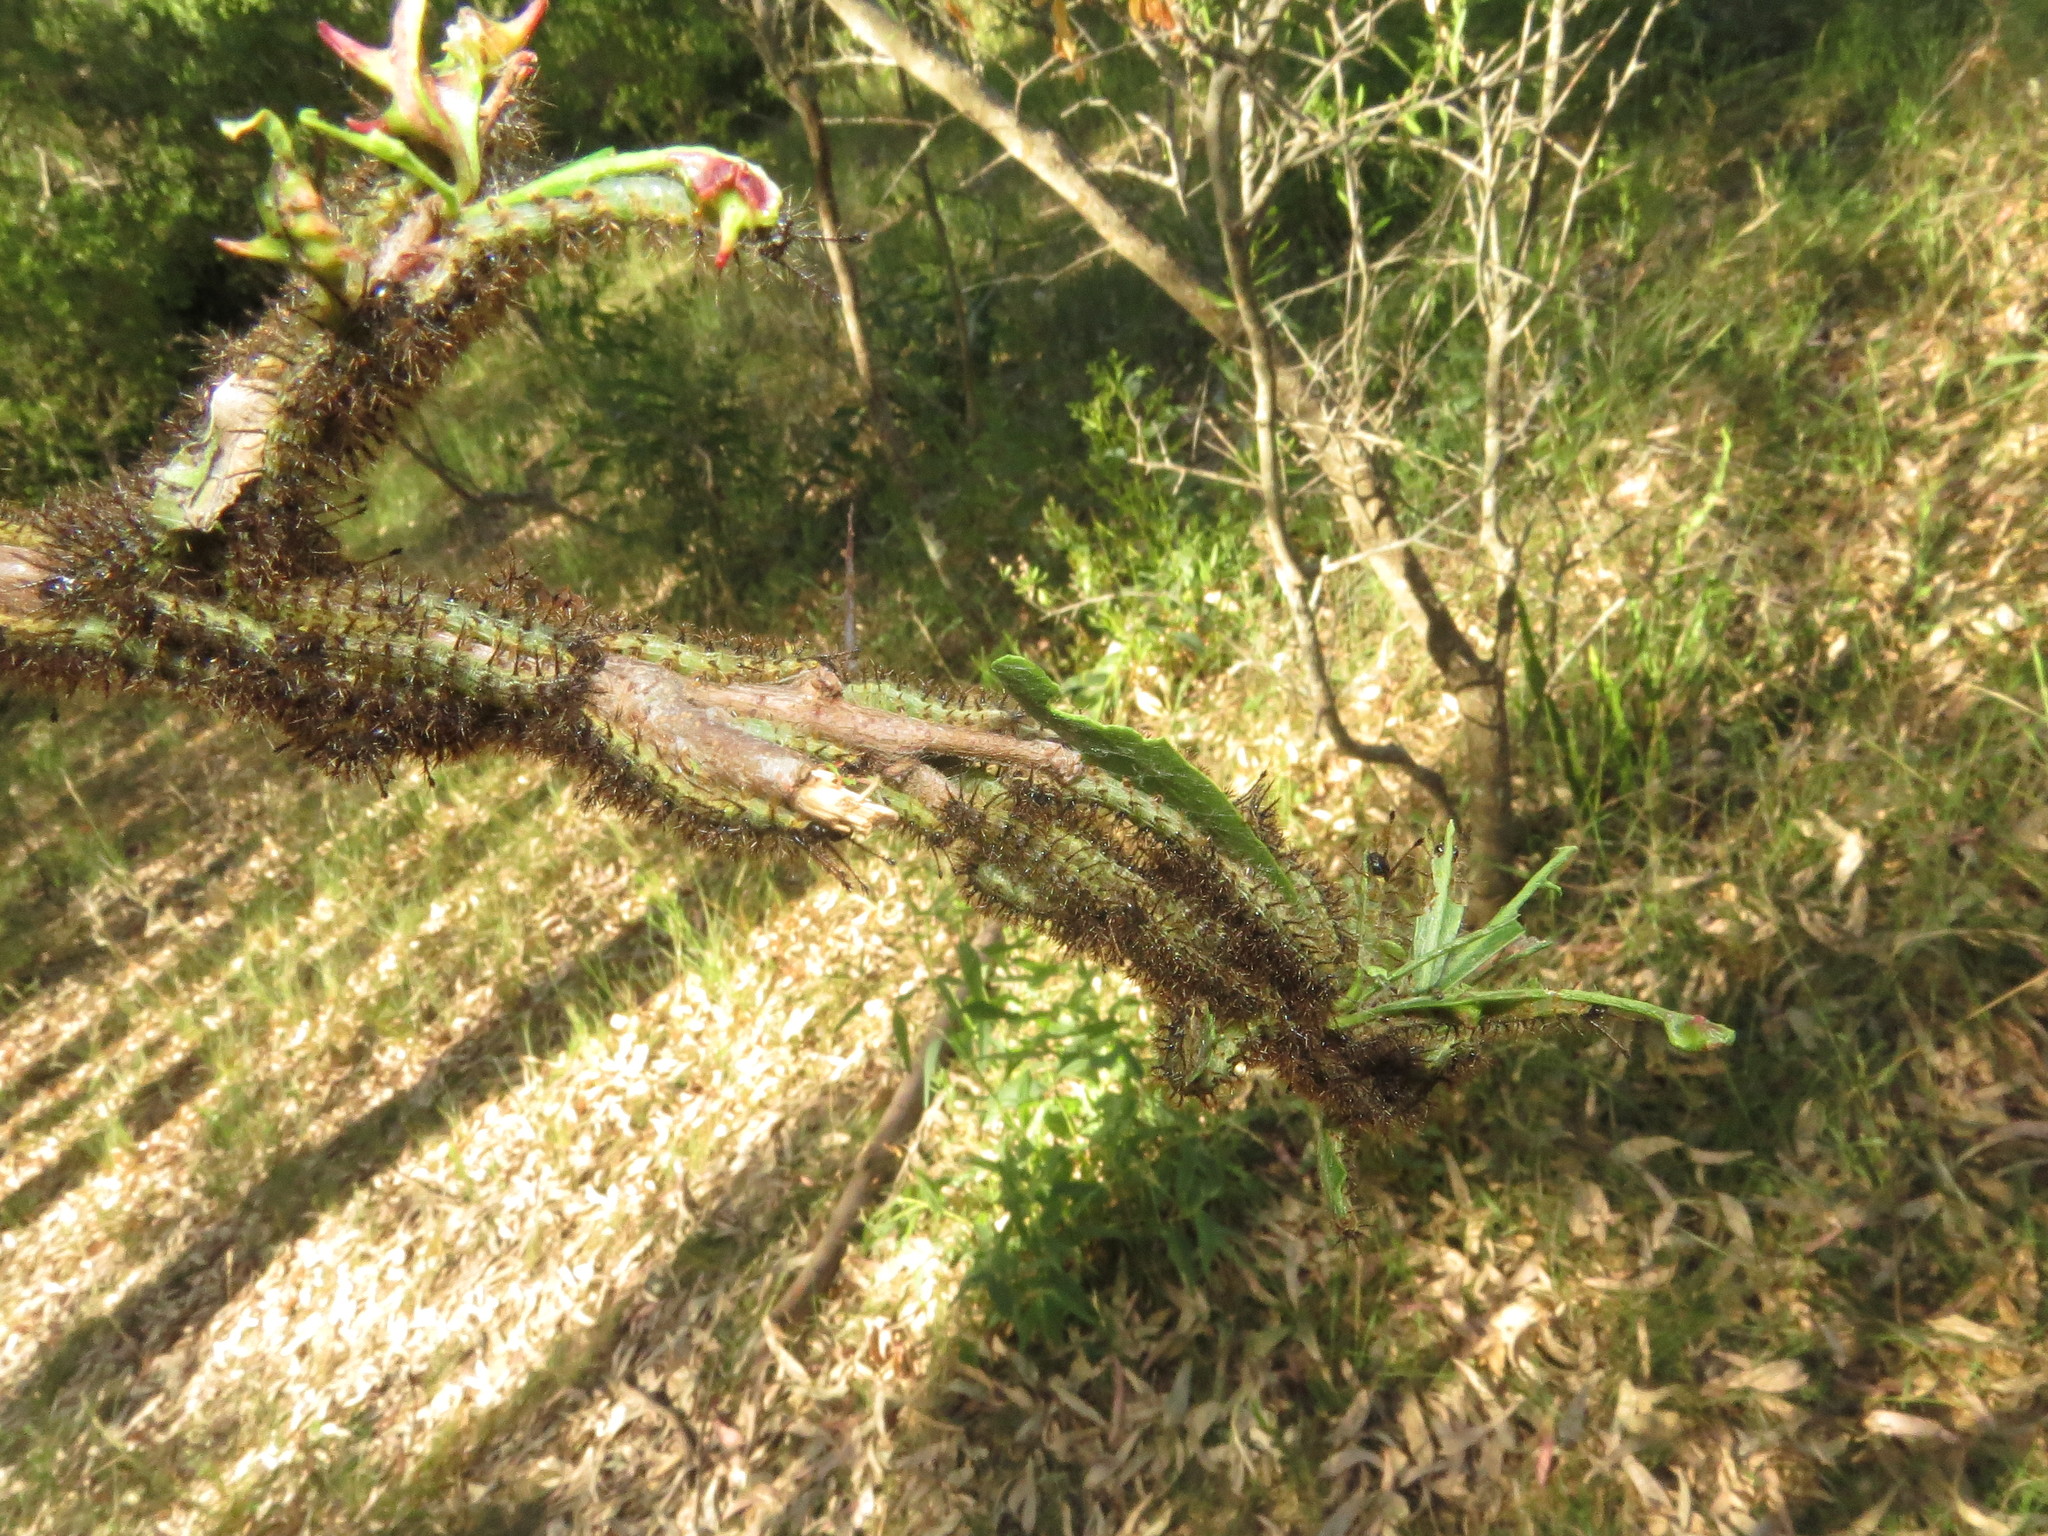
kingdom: Animalia
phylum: Arthropoda
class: Insecta
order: Lepidoptera
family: Saturniidae
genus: Hylesia
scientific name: Hylesia nigricans
